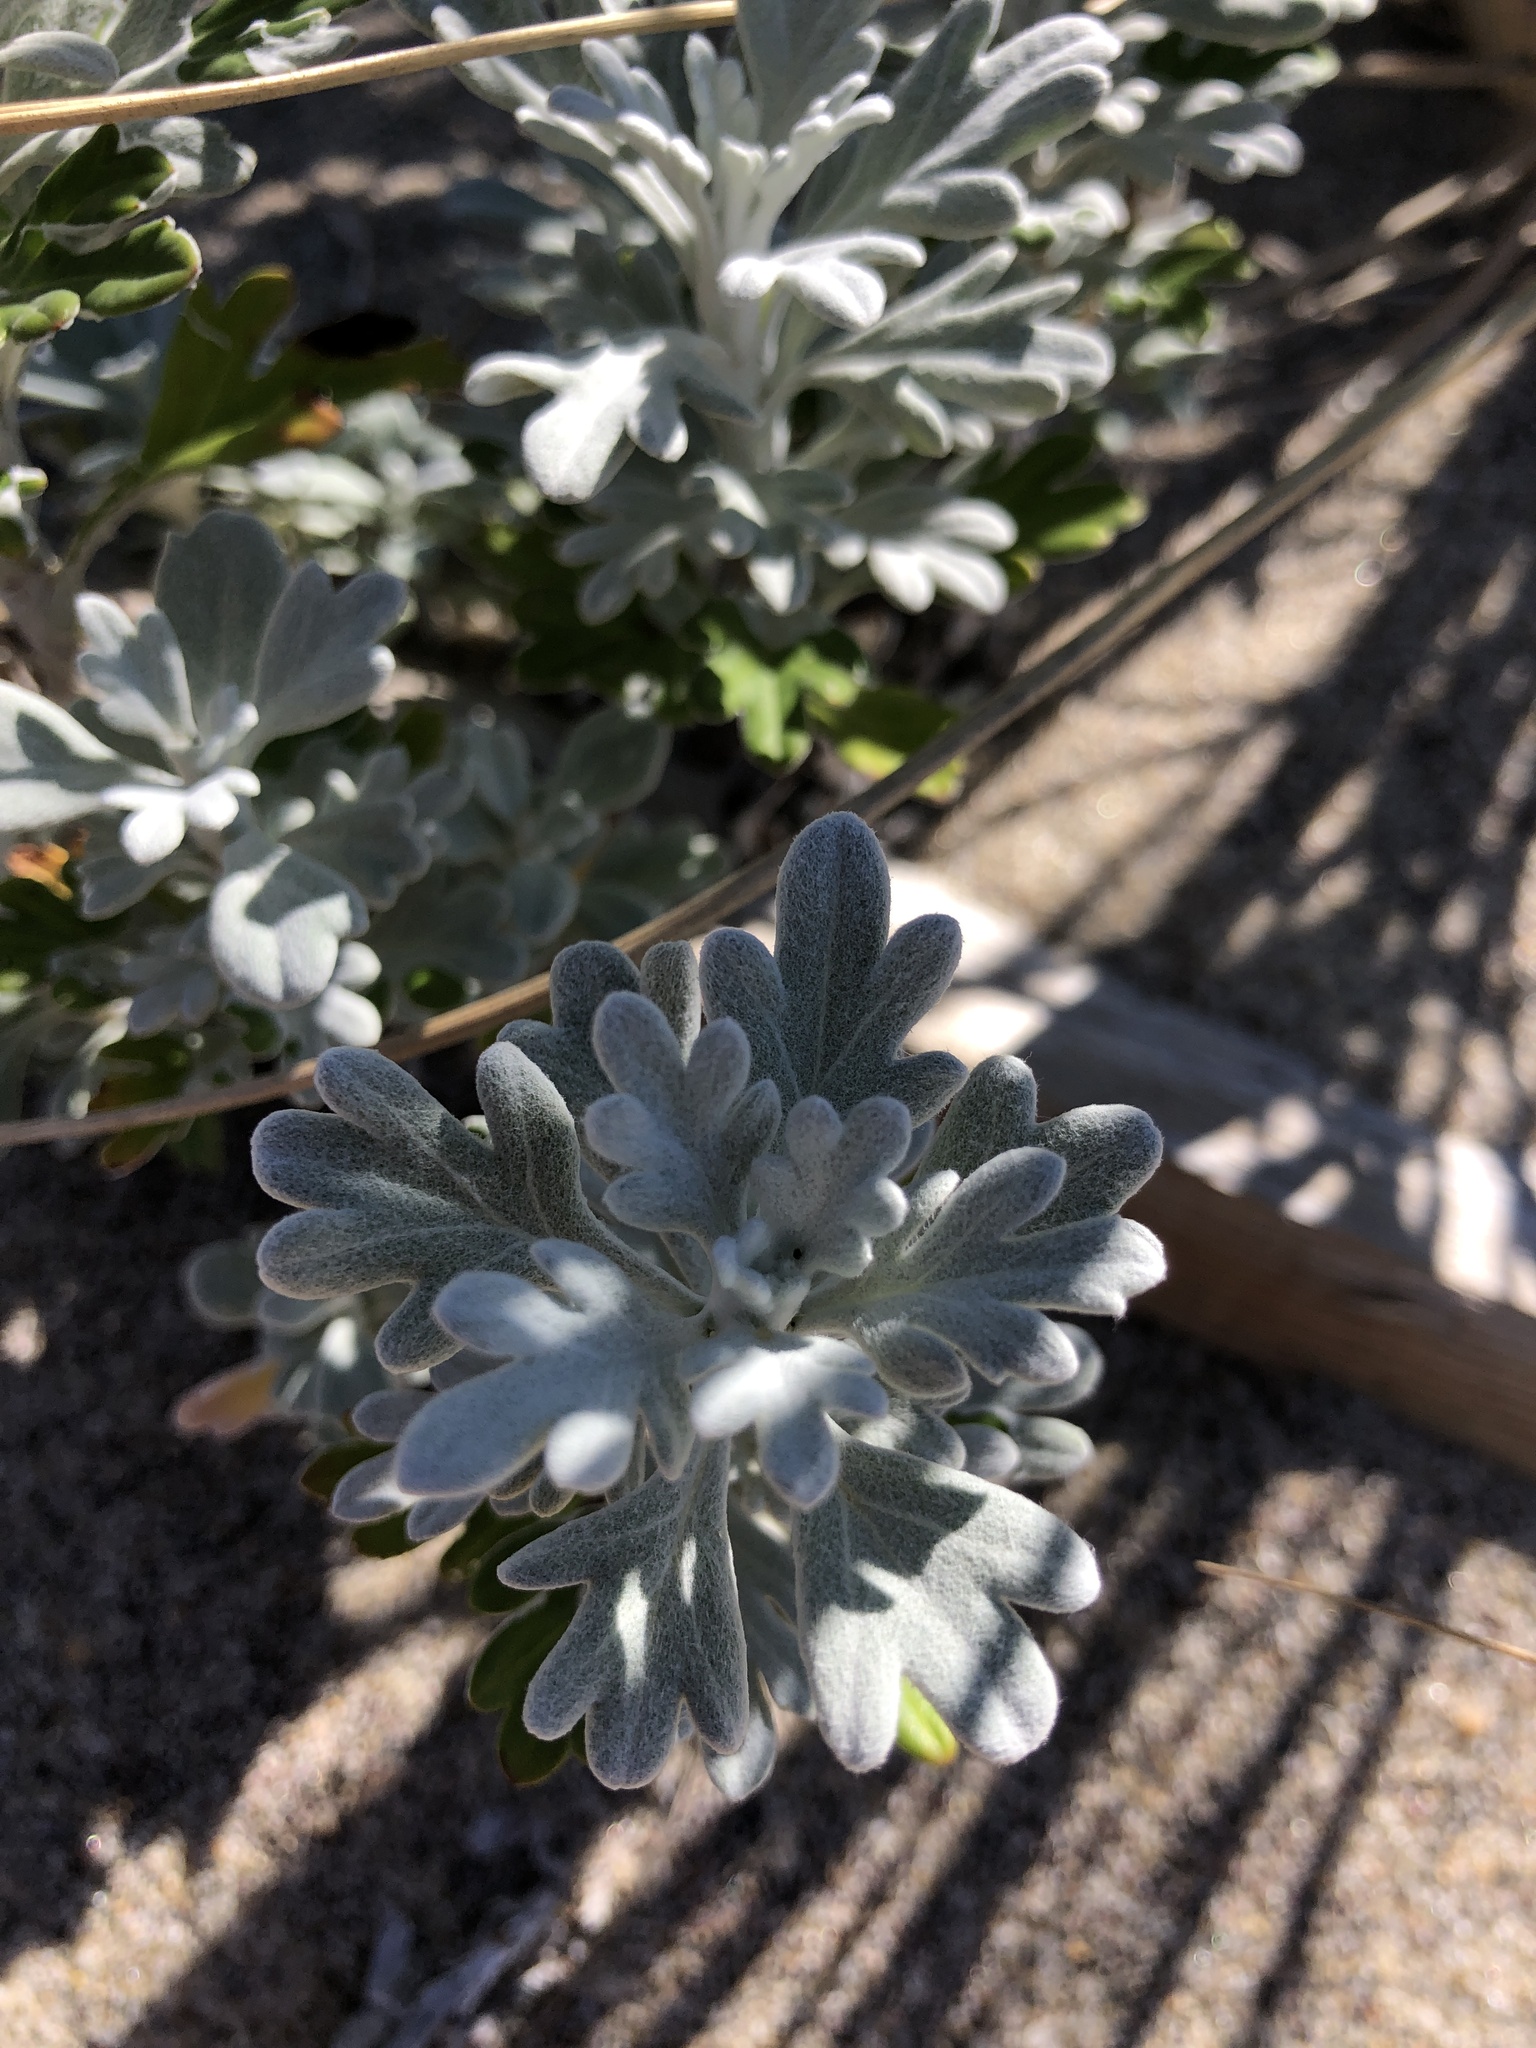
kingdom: Plantae
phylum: Tracheophyta
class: Magnoliopsida
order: Asterales
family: Asteraceae
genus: Artemisia
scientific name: Artemisia stelleriana
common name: Beach wormwood
